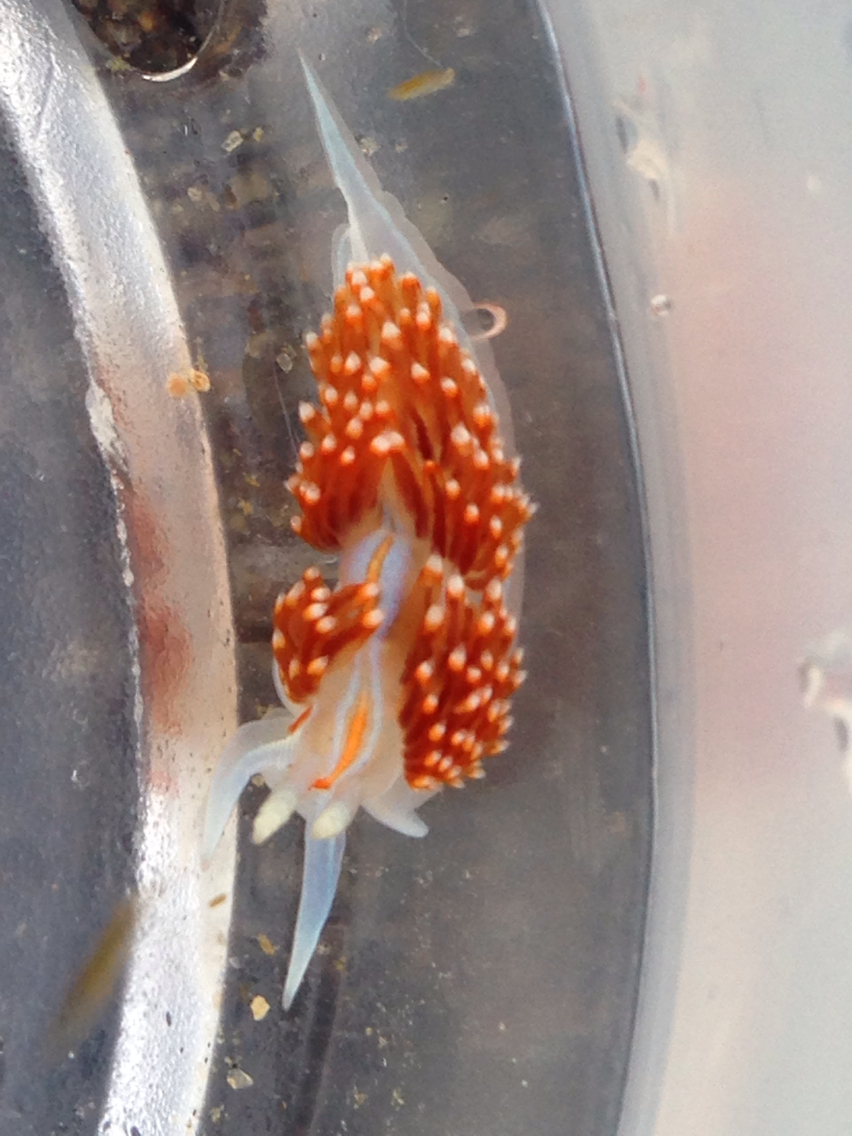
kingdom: Animalia
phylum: Mollusca
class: Gastropoda
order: Nudibranchia
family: Myrrhinidae
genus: Hermissenda
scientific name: Hermissenda opalescens
